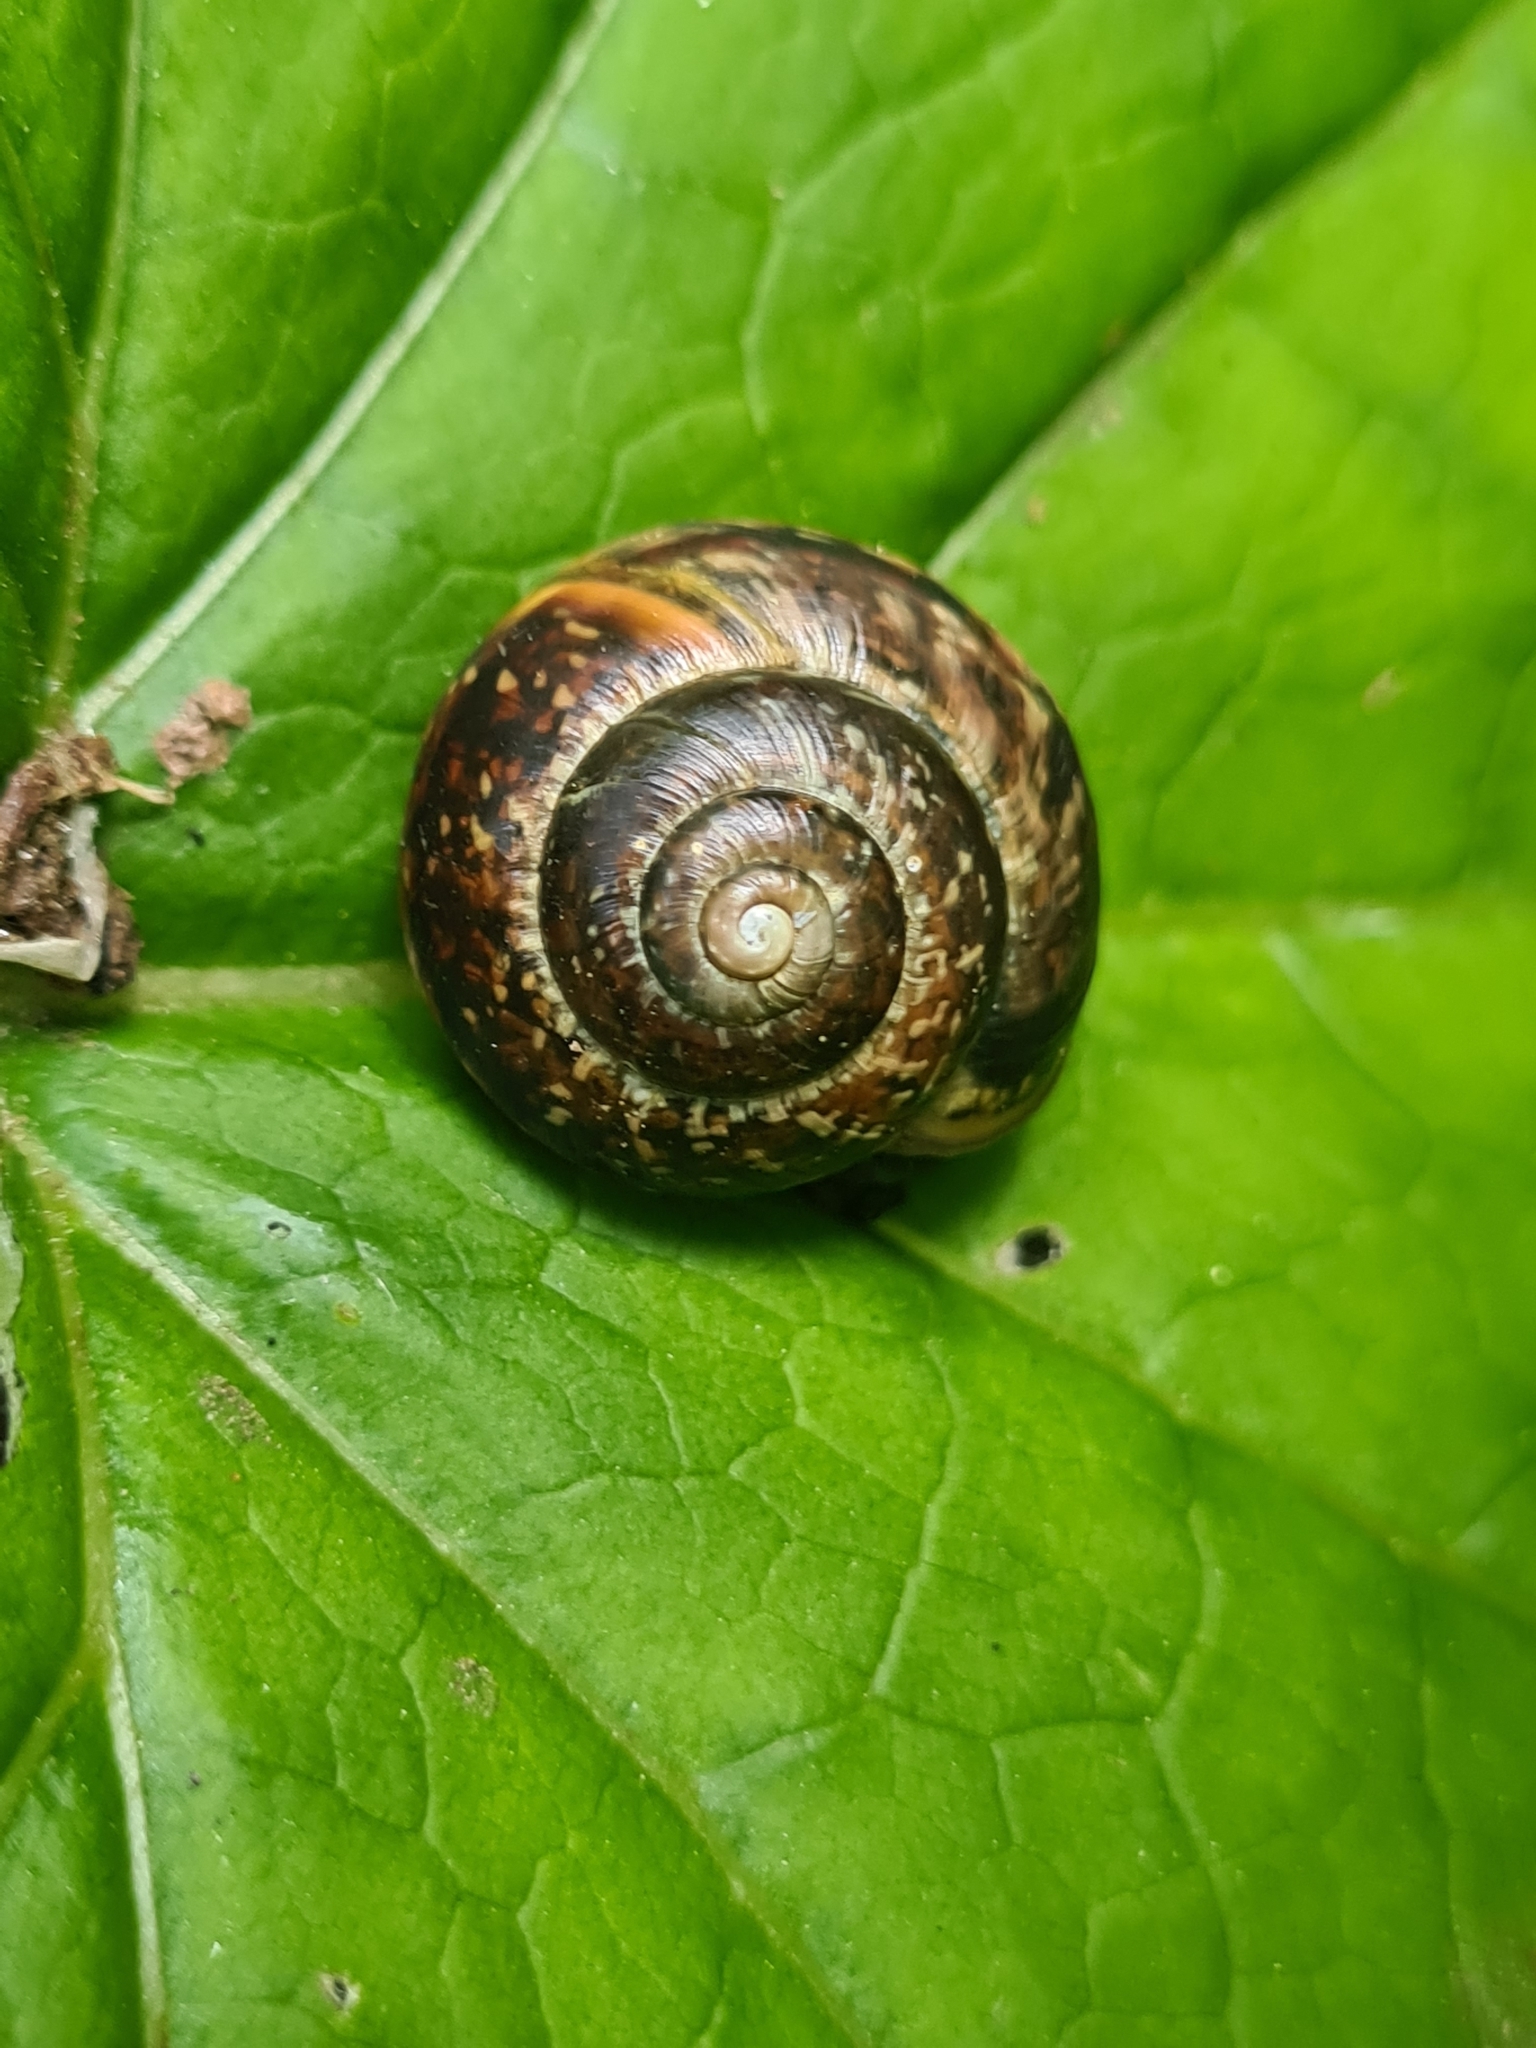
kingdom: Animalia
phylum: Mollusca
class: Gastropoda
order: Stylommatophora
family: Helicidae
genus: Arianta
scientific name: Arianta arbustorum
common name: Copse snail
